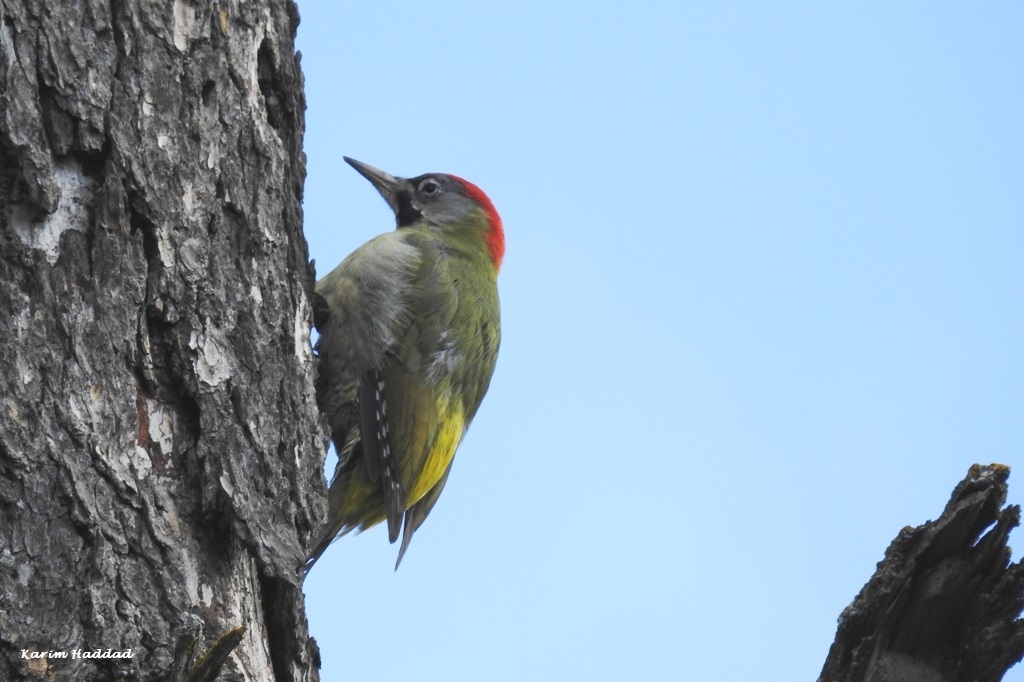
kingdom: Animalia
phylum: Chordata
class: Aves
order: Piciformes
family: Picidae
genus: Picus
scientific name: Picus vaillantii
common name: Levaillant's woodpecker
